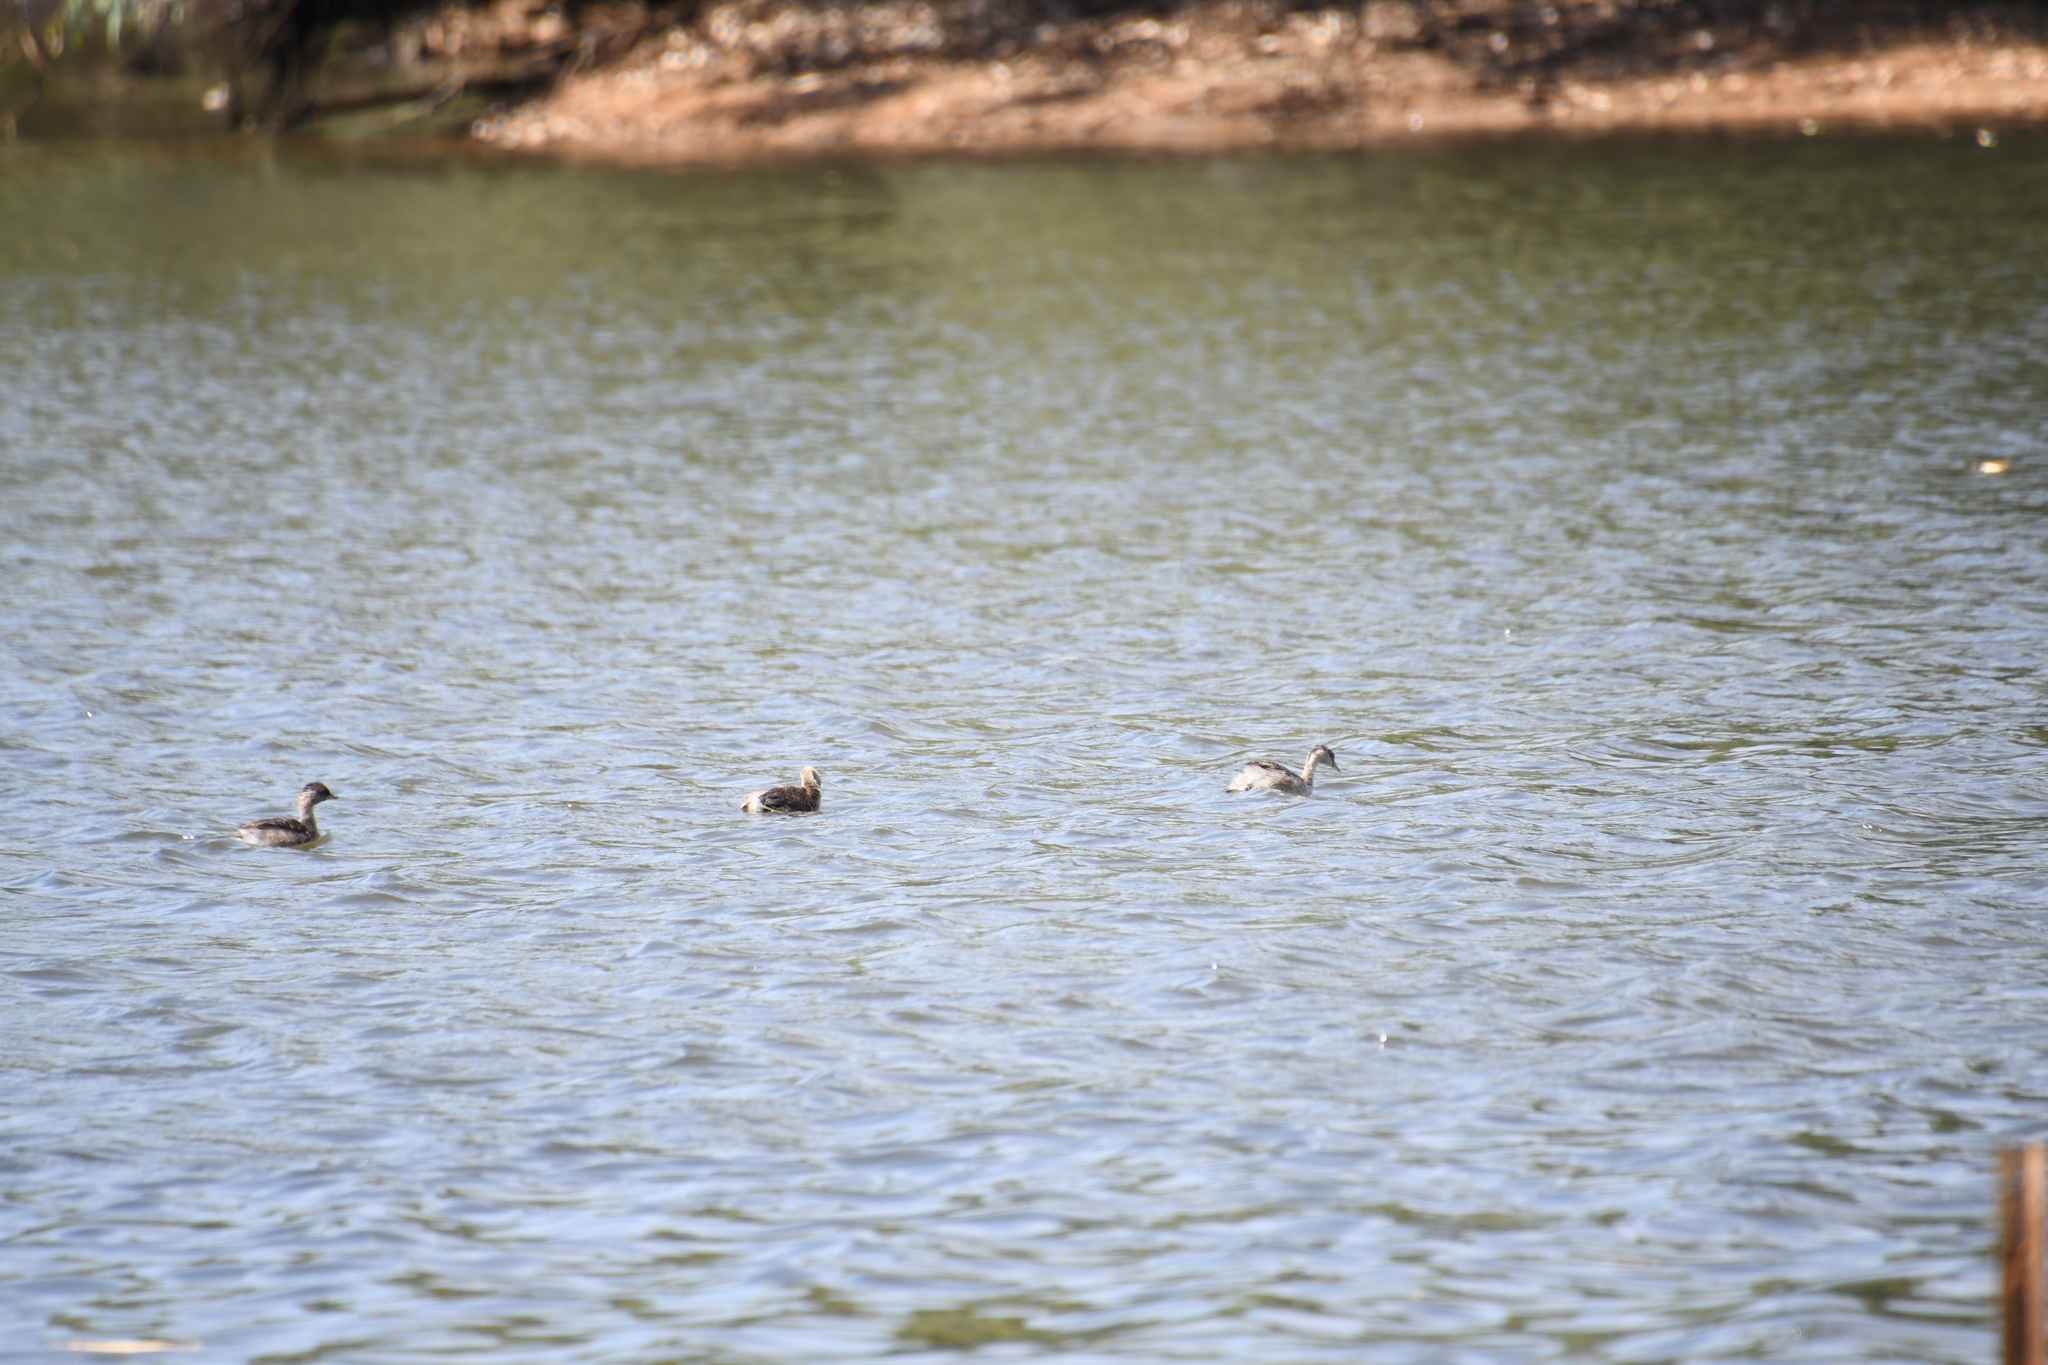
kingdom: Animalia
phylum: Chordata
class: Aves
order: Podicipediformes
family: Podicipedidae
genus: Poliocephalus
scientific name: Poliocephalus poliocephalus
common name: Hoary-headed grebe
